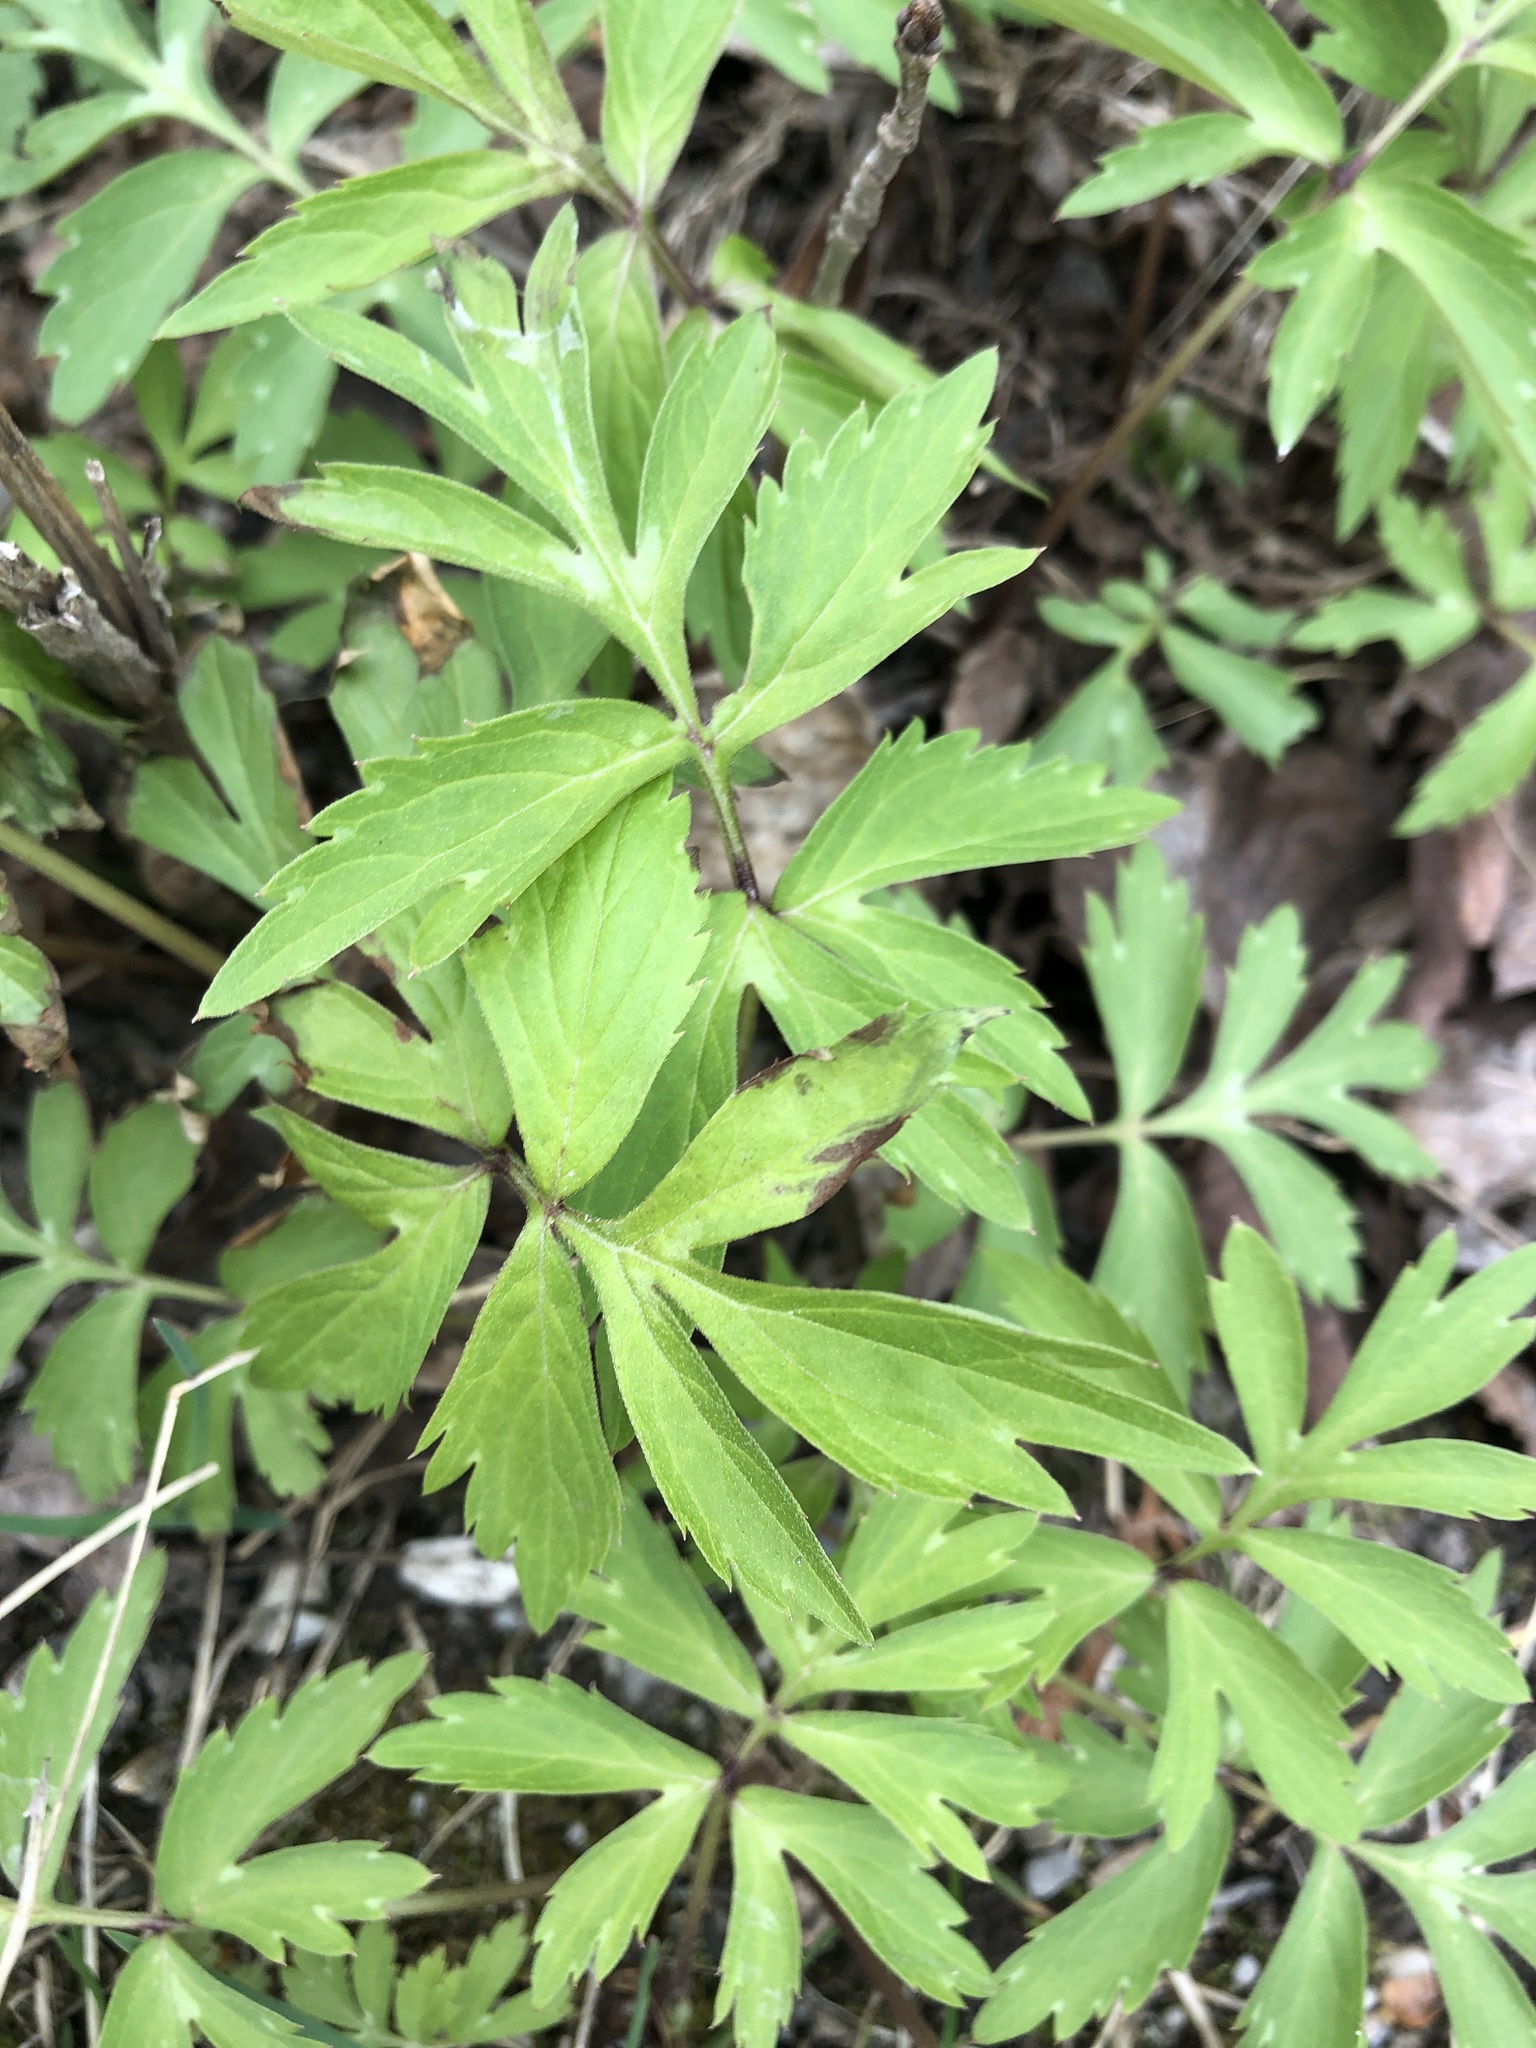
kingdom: Plantae
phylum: Tracheophyta
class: Magnoliopsida
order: Boraginales
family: Hydrophyllaceae
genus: Hydrophyllum
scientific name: Hydrophyllum virginianum
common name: Virginia waterleaf
